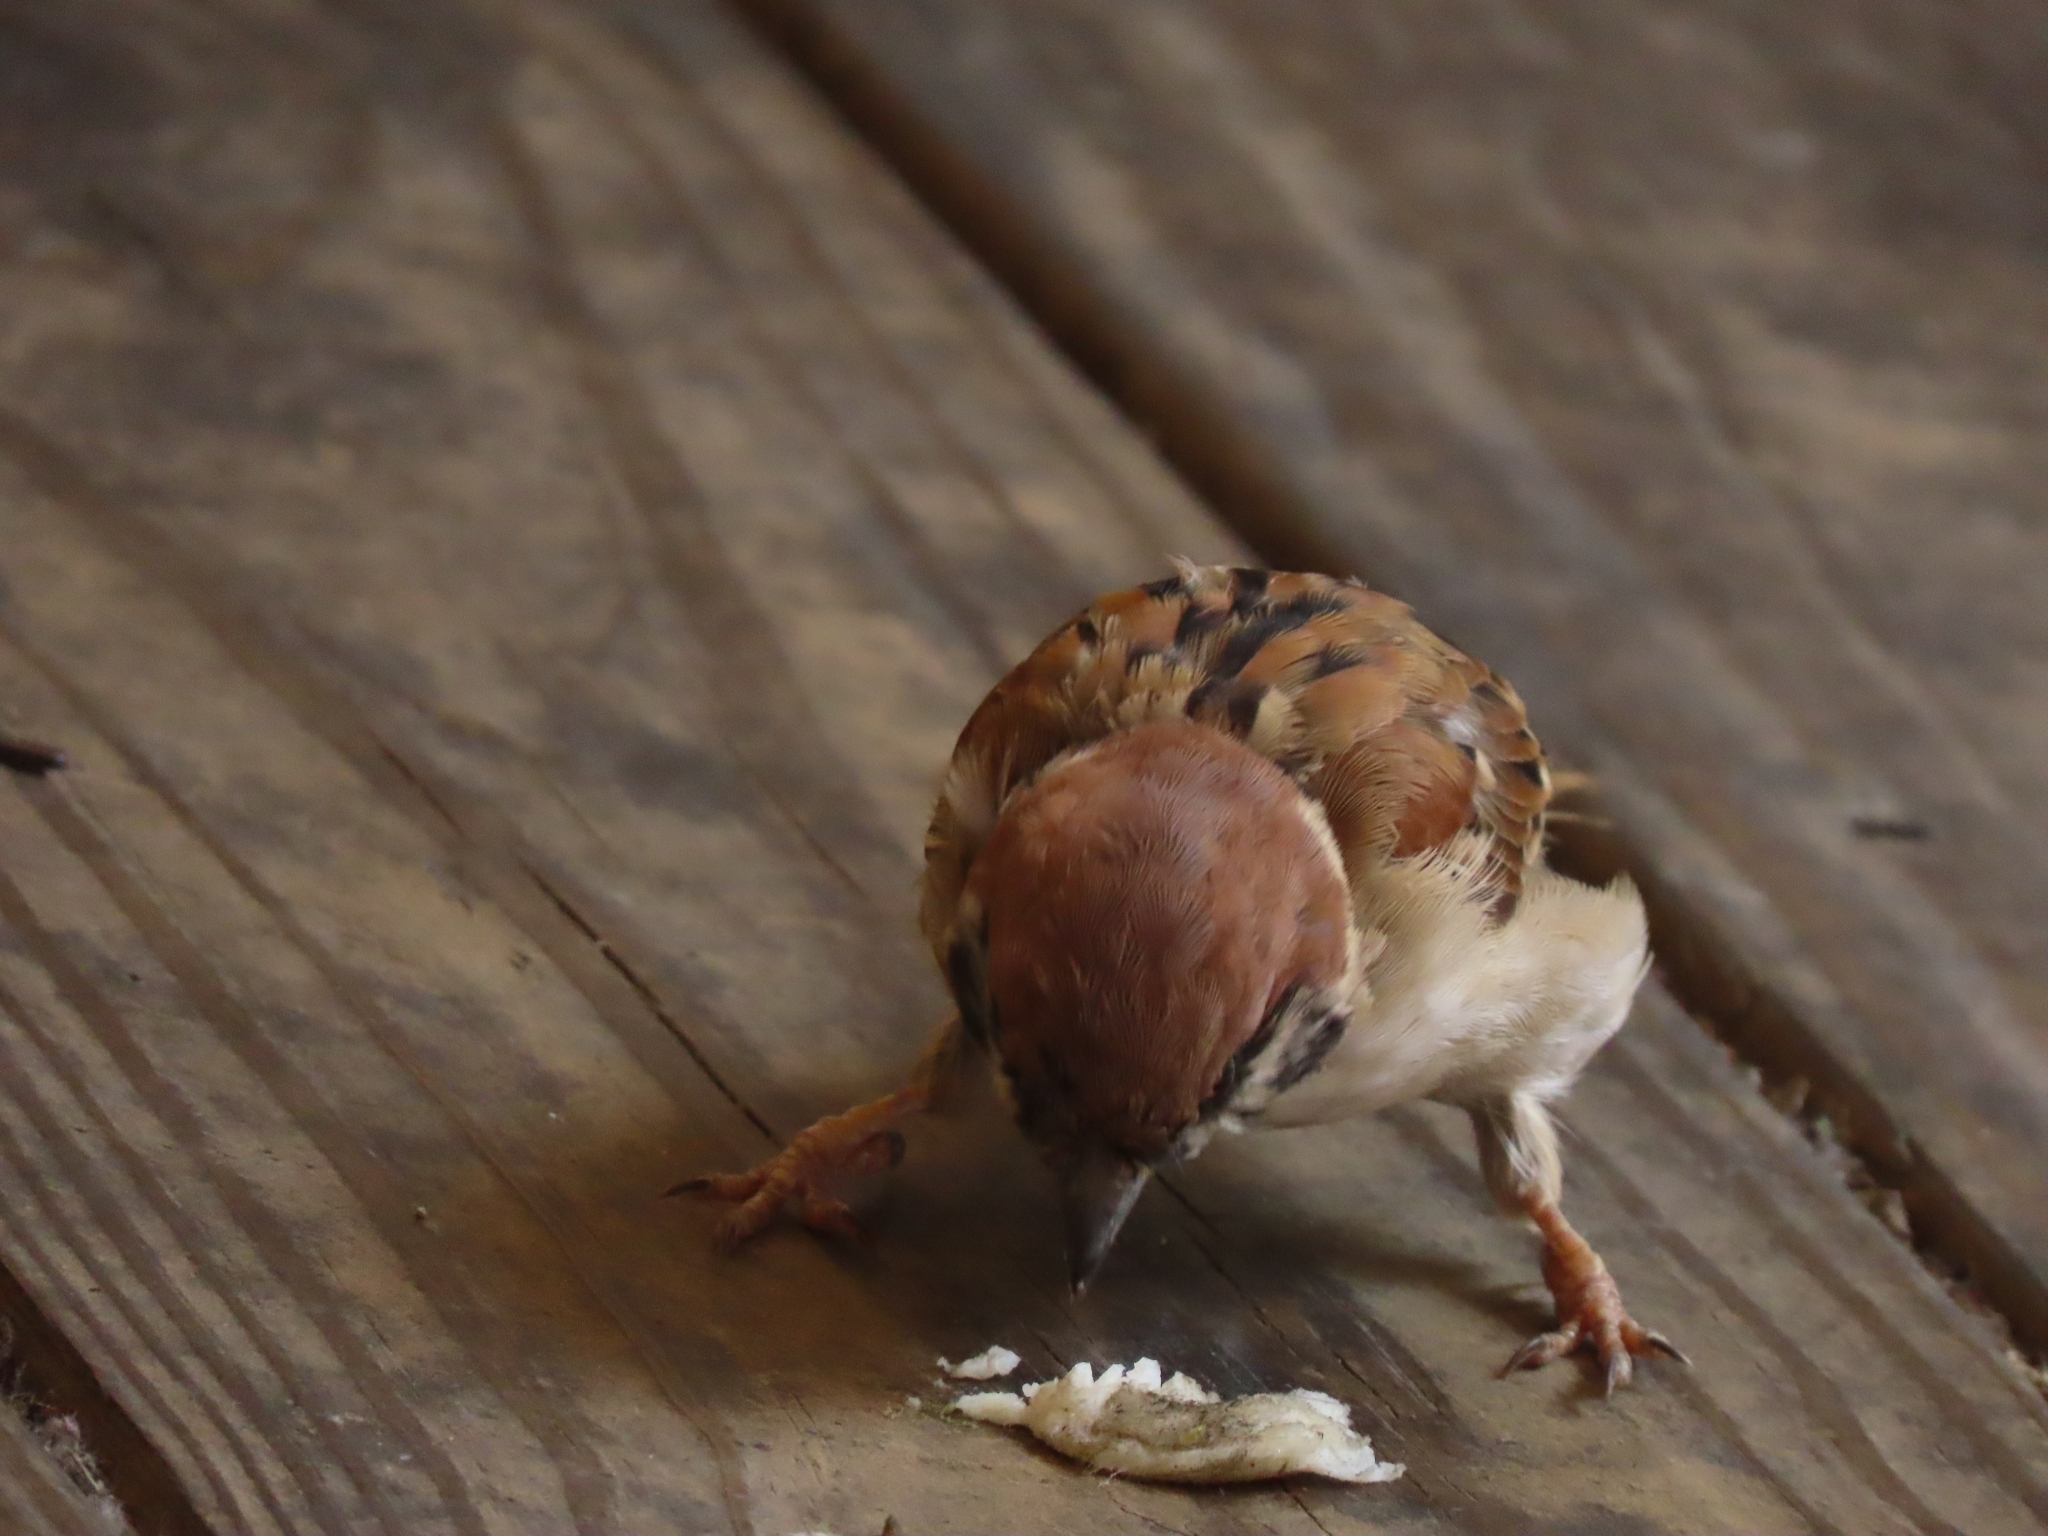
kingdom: Animalia
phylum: Chordata
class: Aves
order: Passeriformes
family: Passeridae
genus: Passer
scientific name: Passer montanus
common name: Eurasian tree sparrow
